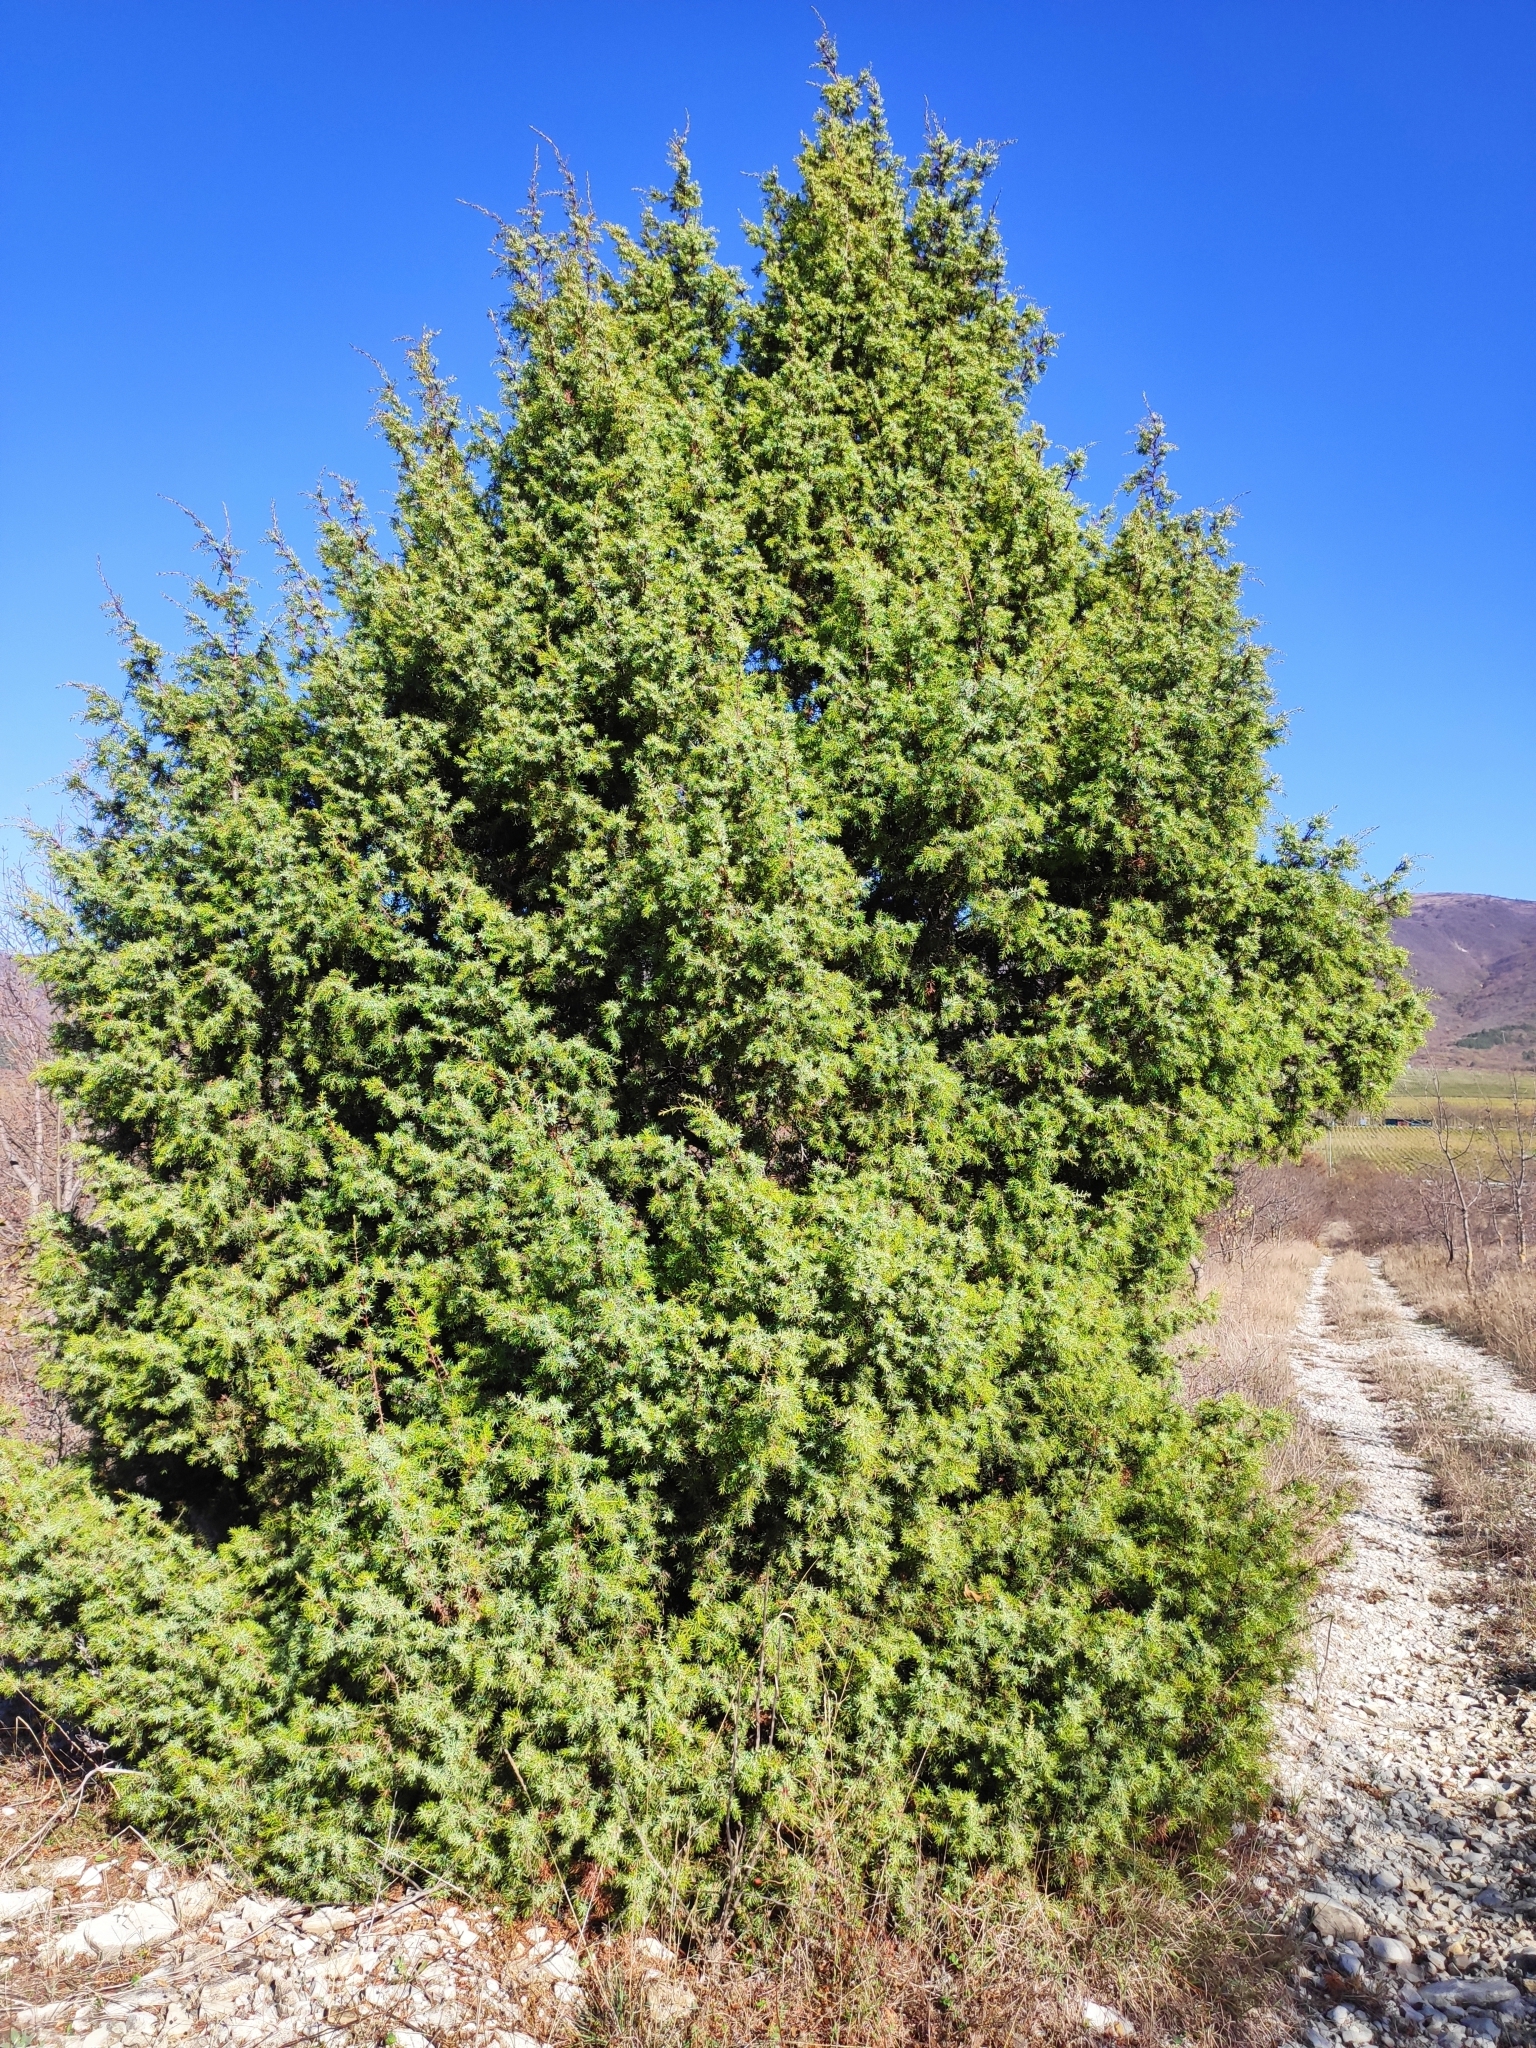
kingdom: Plantae
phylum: Tracheophyta
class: Pinopsida
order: Pinales
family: Cupressaceae
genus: Juniperus
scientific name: Juniperus oxycedrus
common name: Prickly juniper
